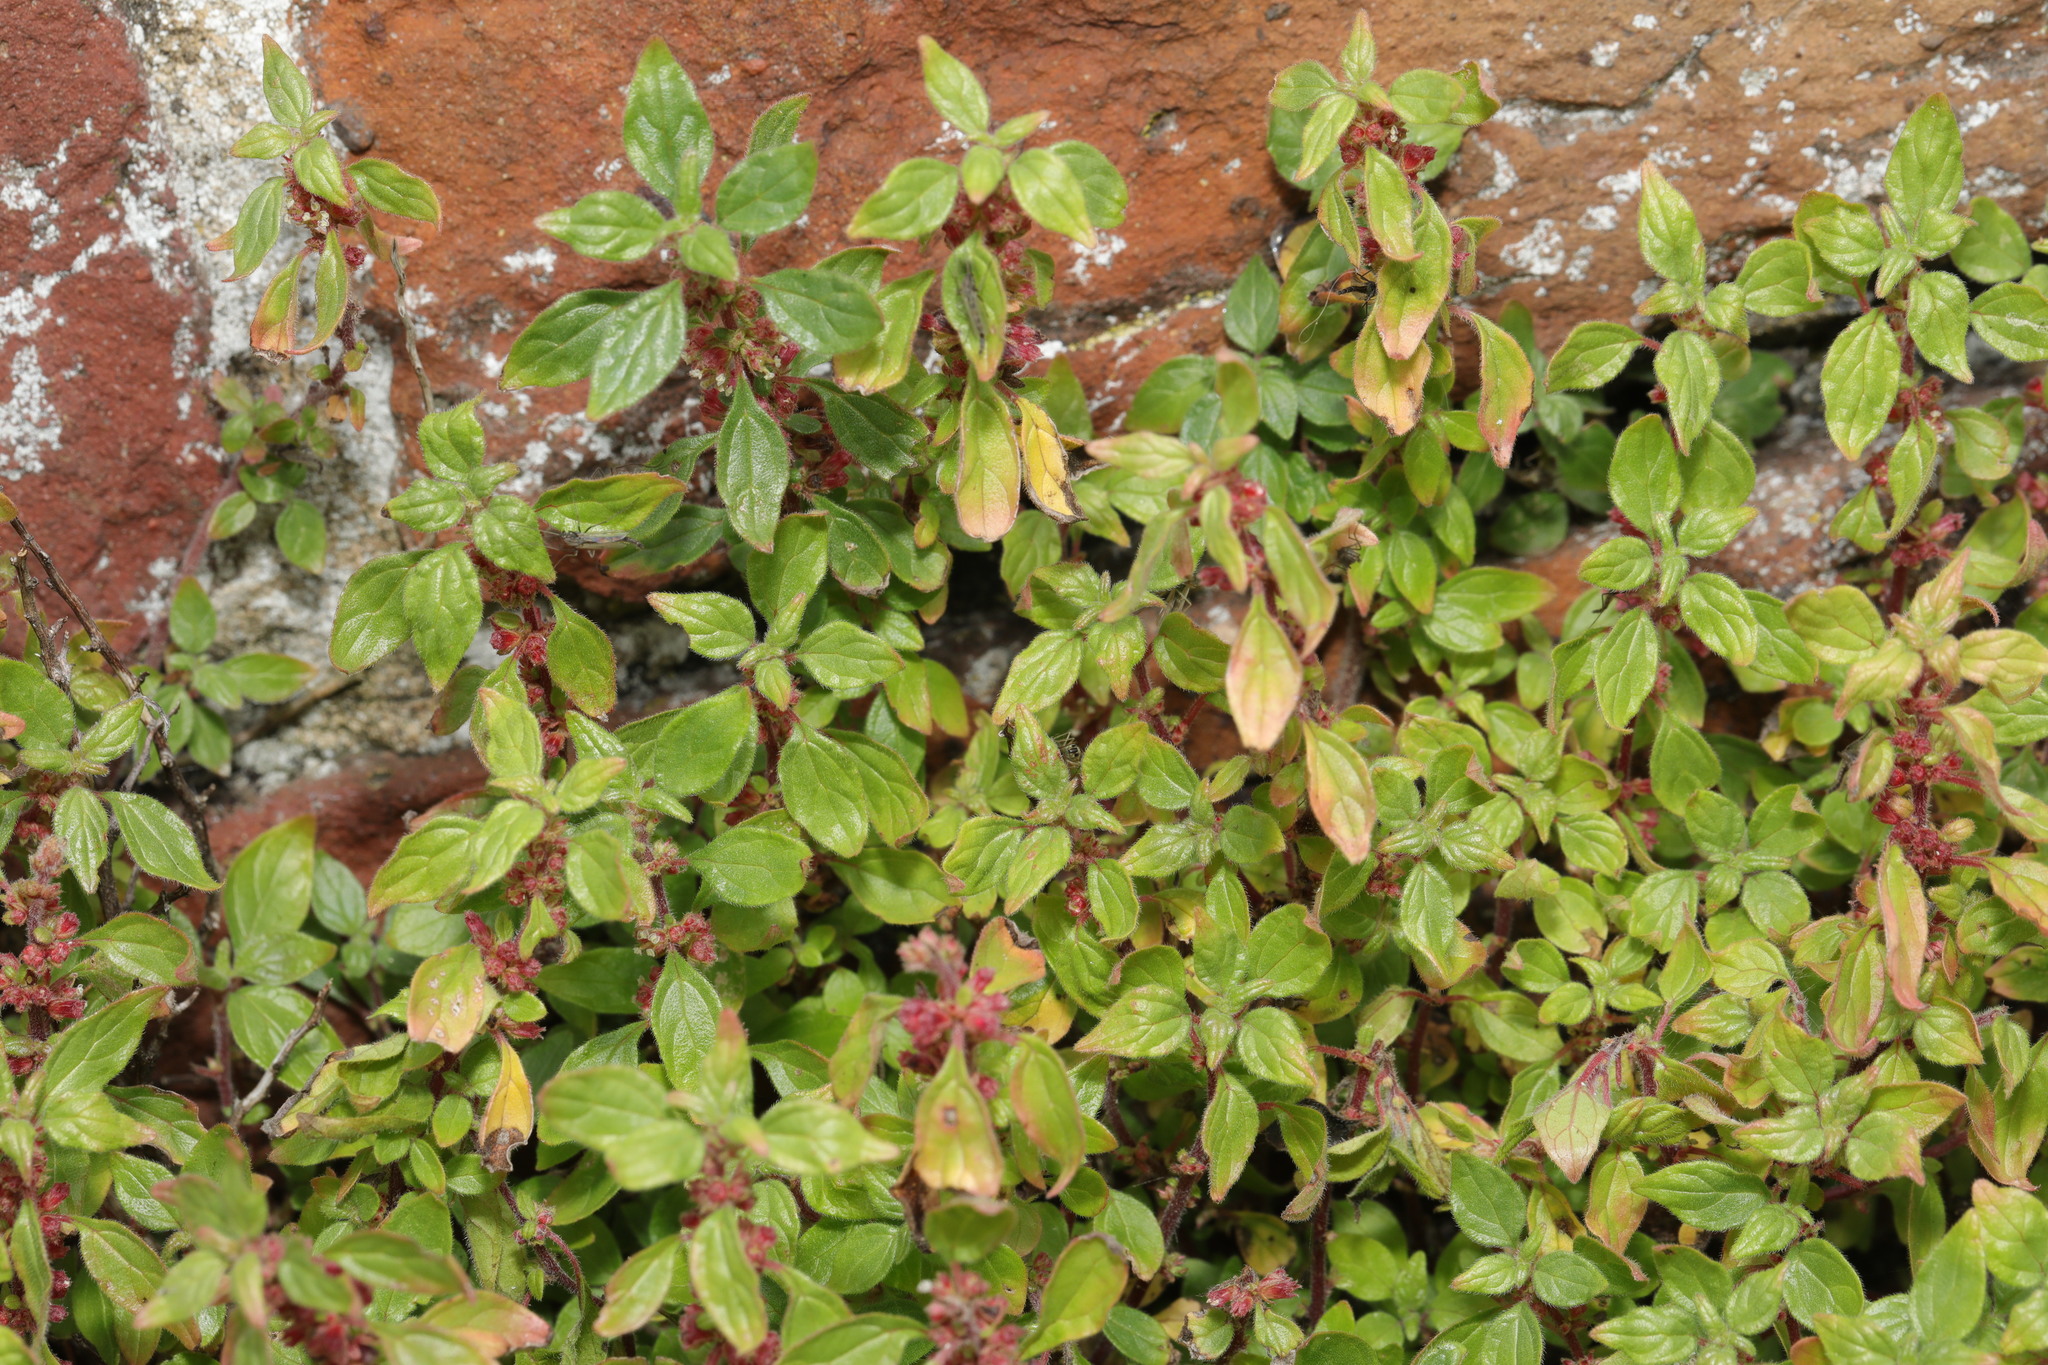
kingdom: Plantae
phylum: Tracheophyta
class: Magnoliopsida
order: Rosales
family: Urticaceae
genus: Parietaria
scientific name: Parietaria judaica
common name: Pellitory-of-the-wall
